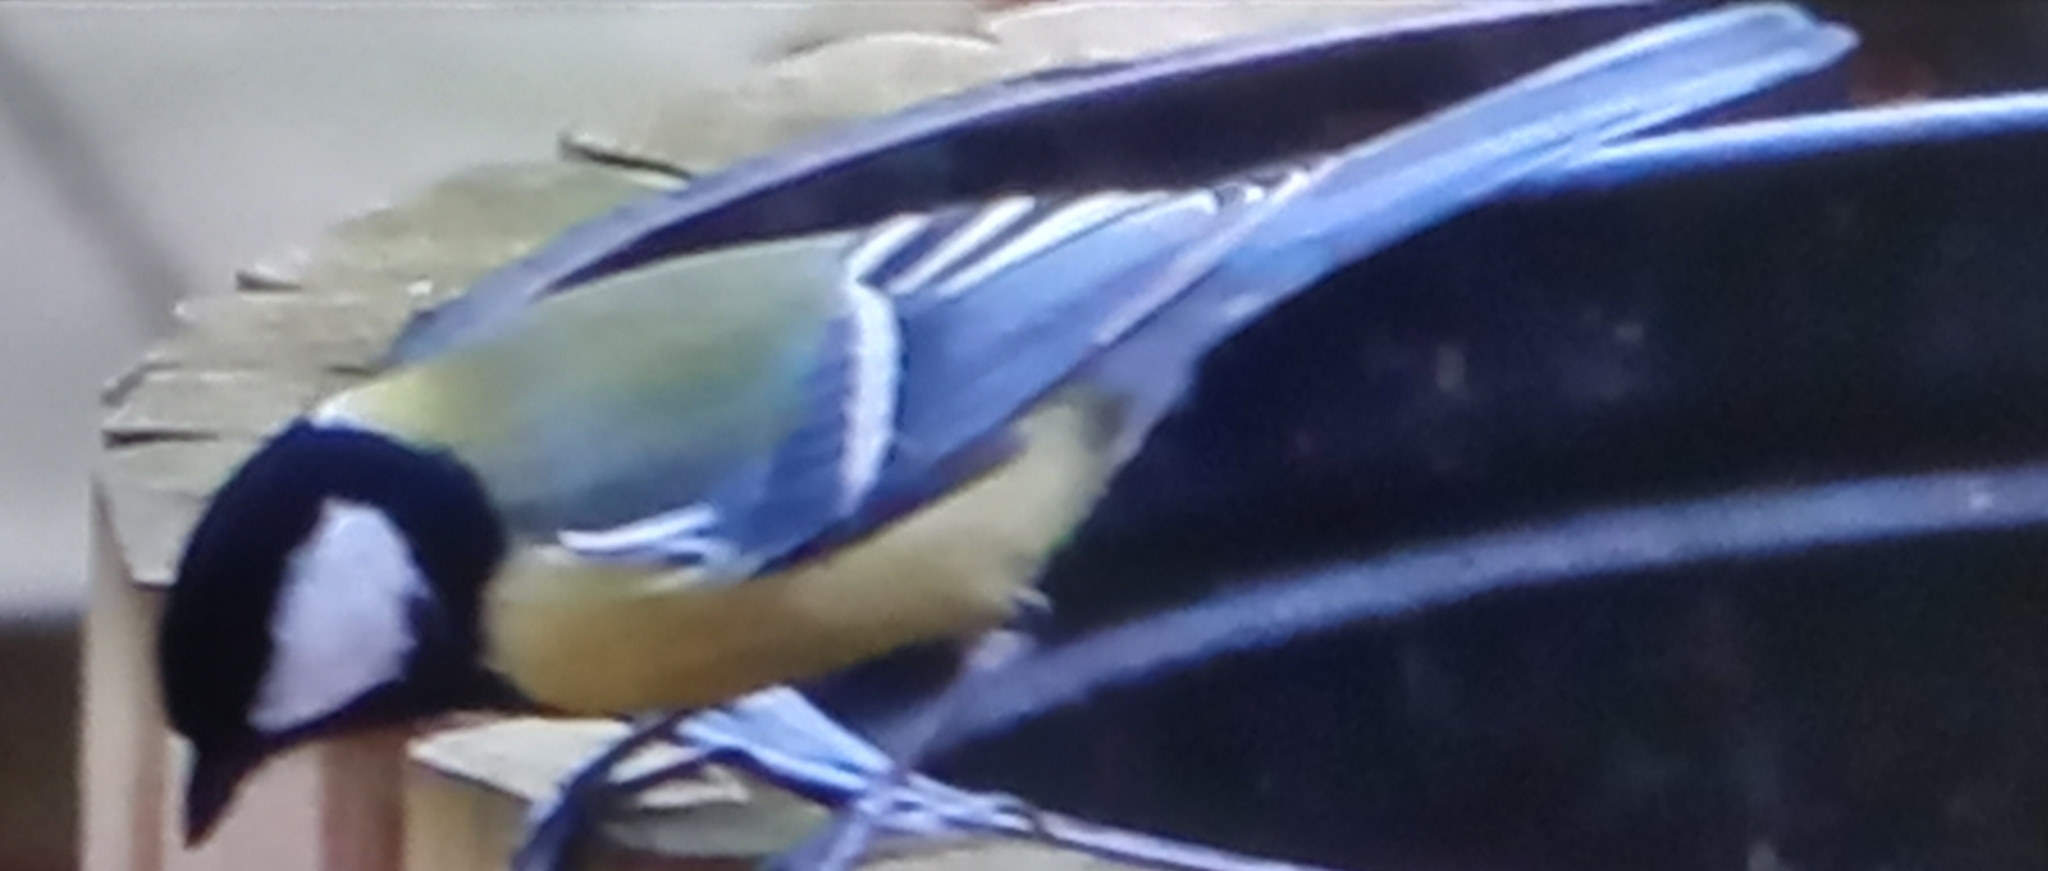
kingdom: Animalia
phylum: Chordata
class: Aves
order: Passeriformes
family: Paridae
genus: Parus
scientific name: Parus major
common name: Great tit
